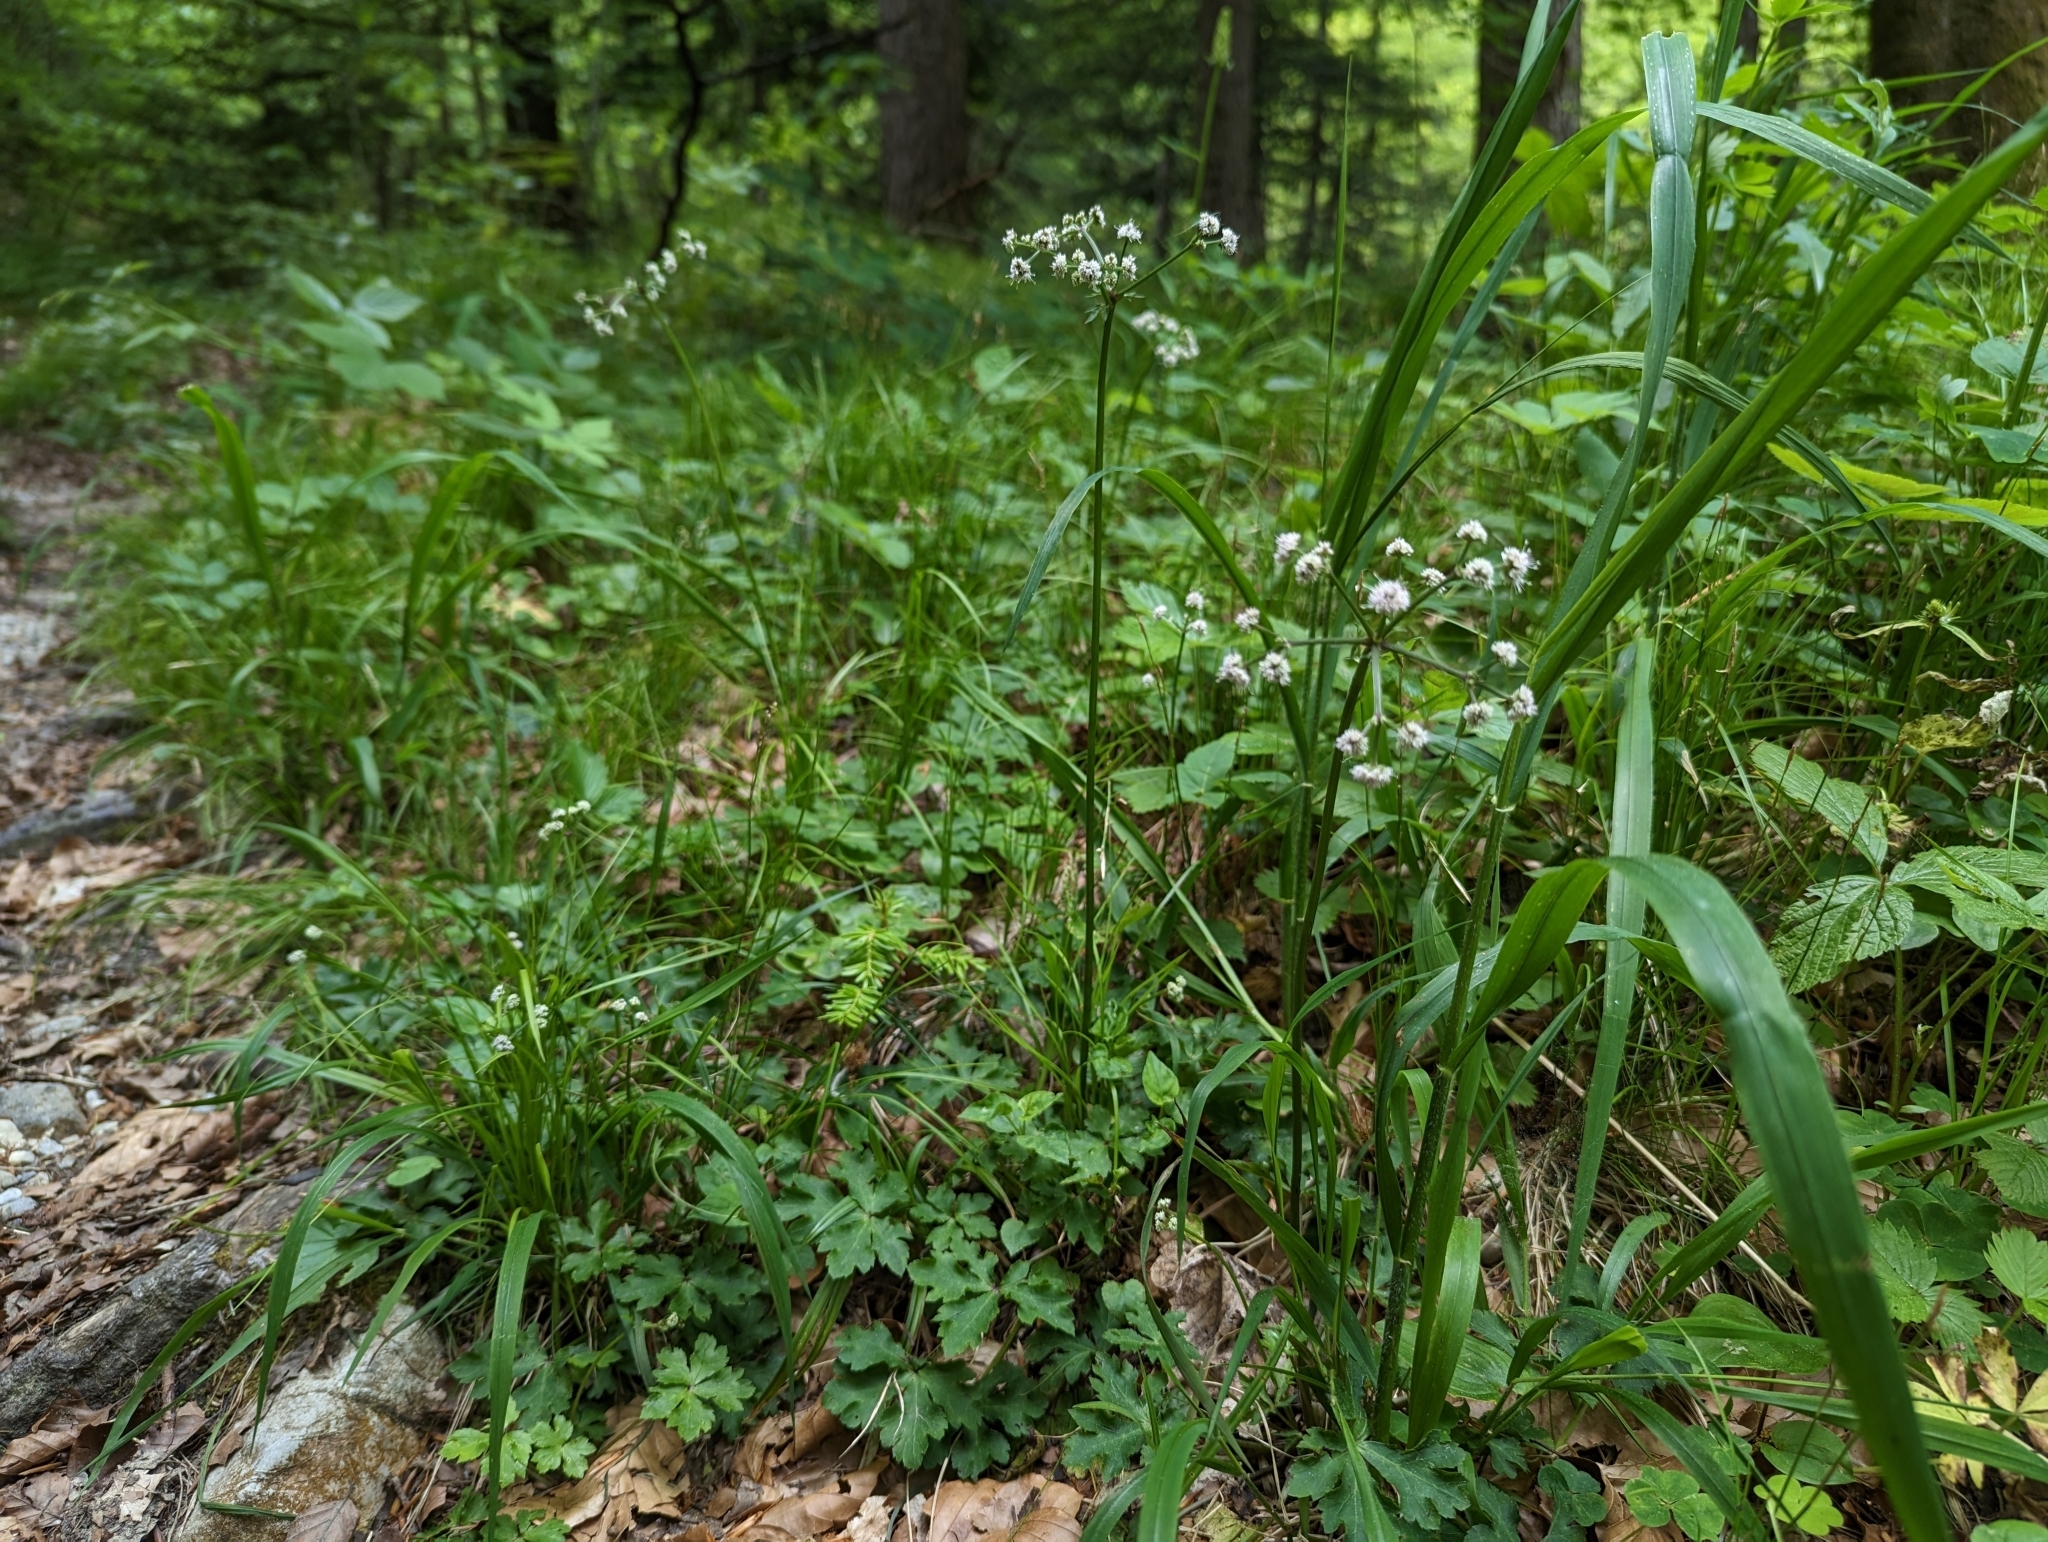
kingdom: Plantae
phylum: Tracheophyta
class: Magnoliopsida
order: Apiales
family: Apiaceae
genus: Sanicula
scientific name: Sanicula europaea
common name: Sanicle
